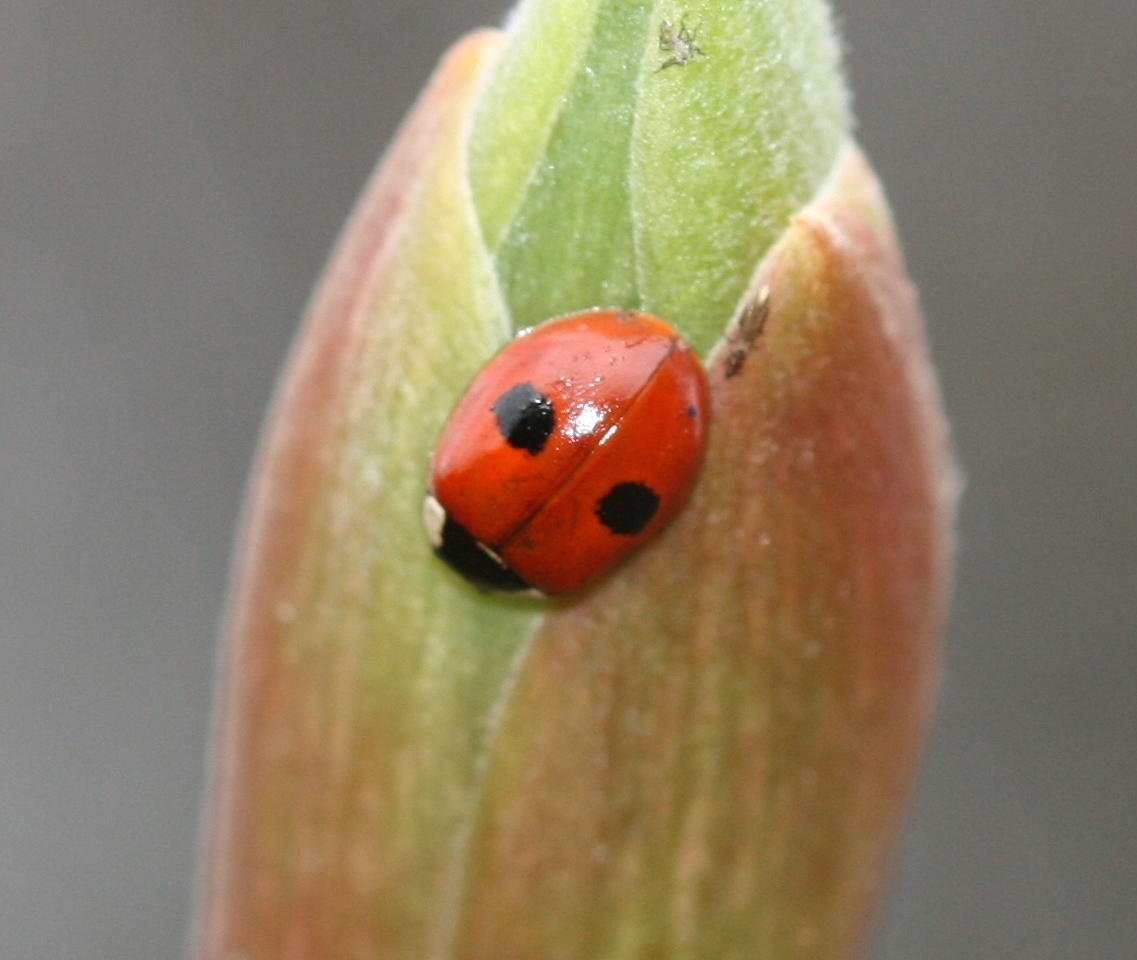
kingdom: Animalia
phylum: Arthropoda
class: Insecta
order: Coleoptera
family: Coccinellidae
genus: Adalia
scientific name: Adalia bipunctata
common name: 2-spot ladybird
